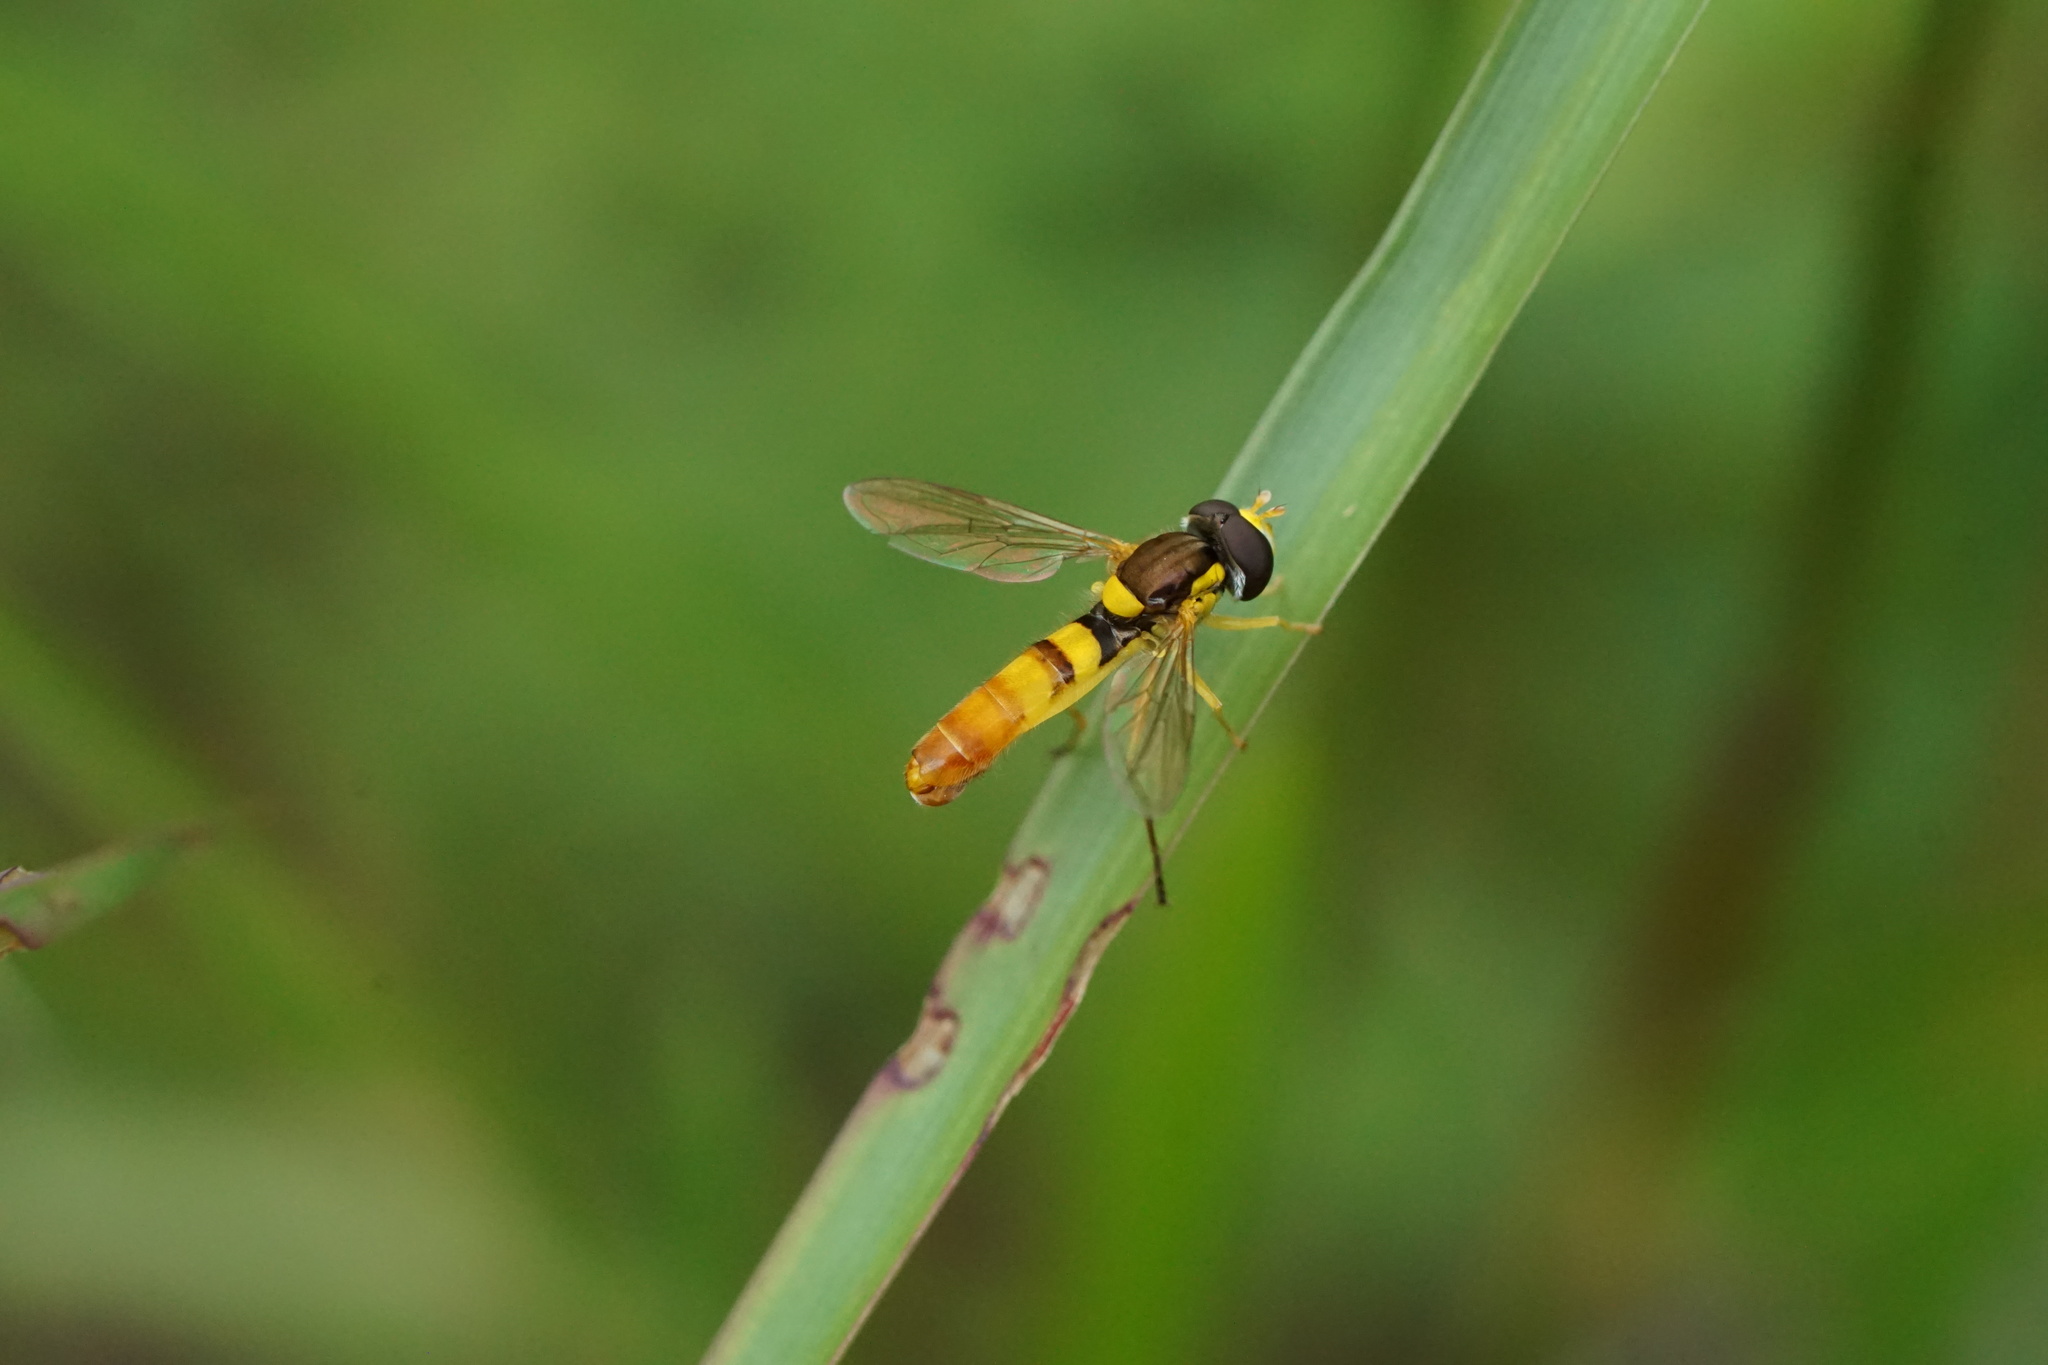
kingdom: Animalia
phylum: Arthropoda
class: Insecta
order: Diptera
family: Syrphidae
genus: Sphaerophoria
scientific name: Sphaerophoria contigua
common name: Tufted globetail
